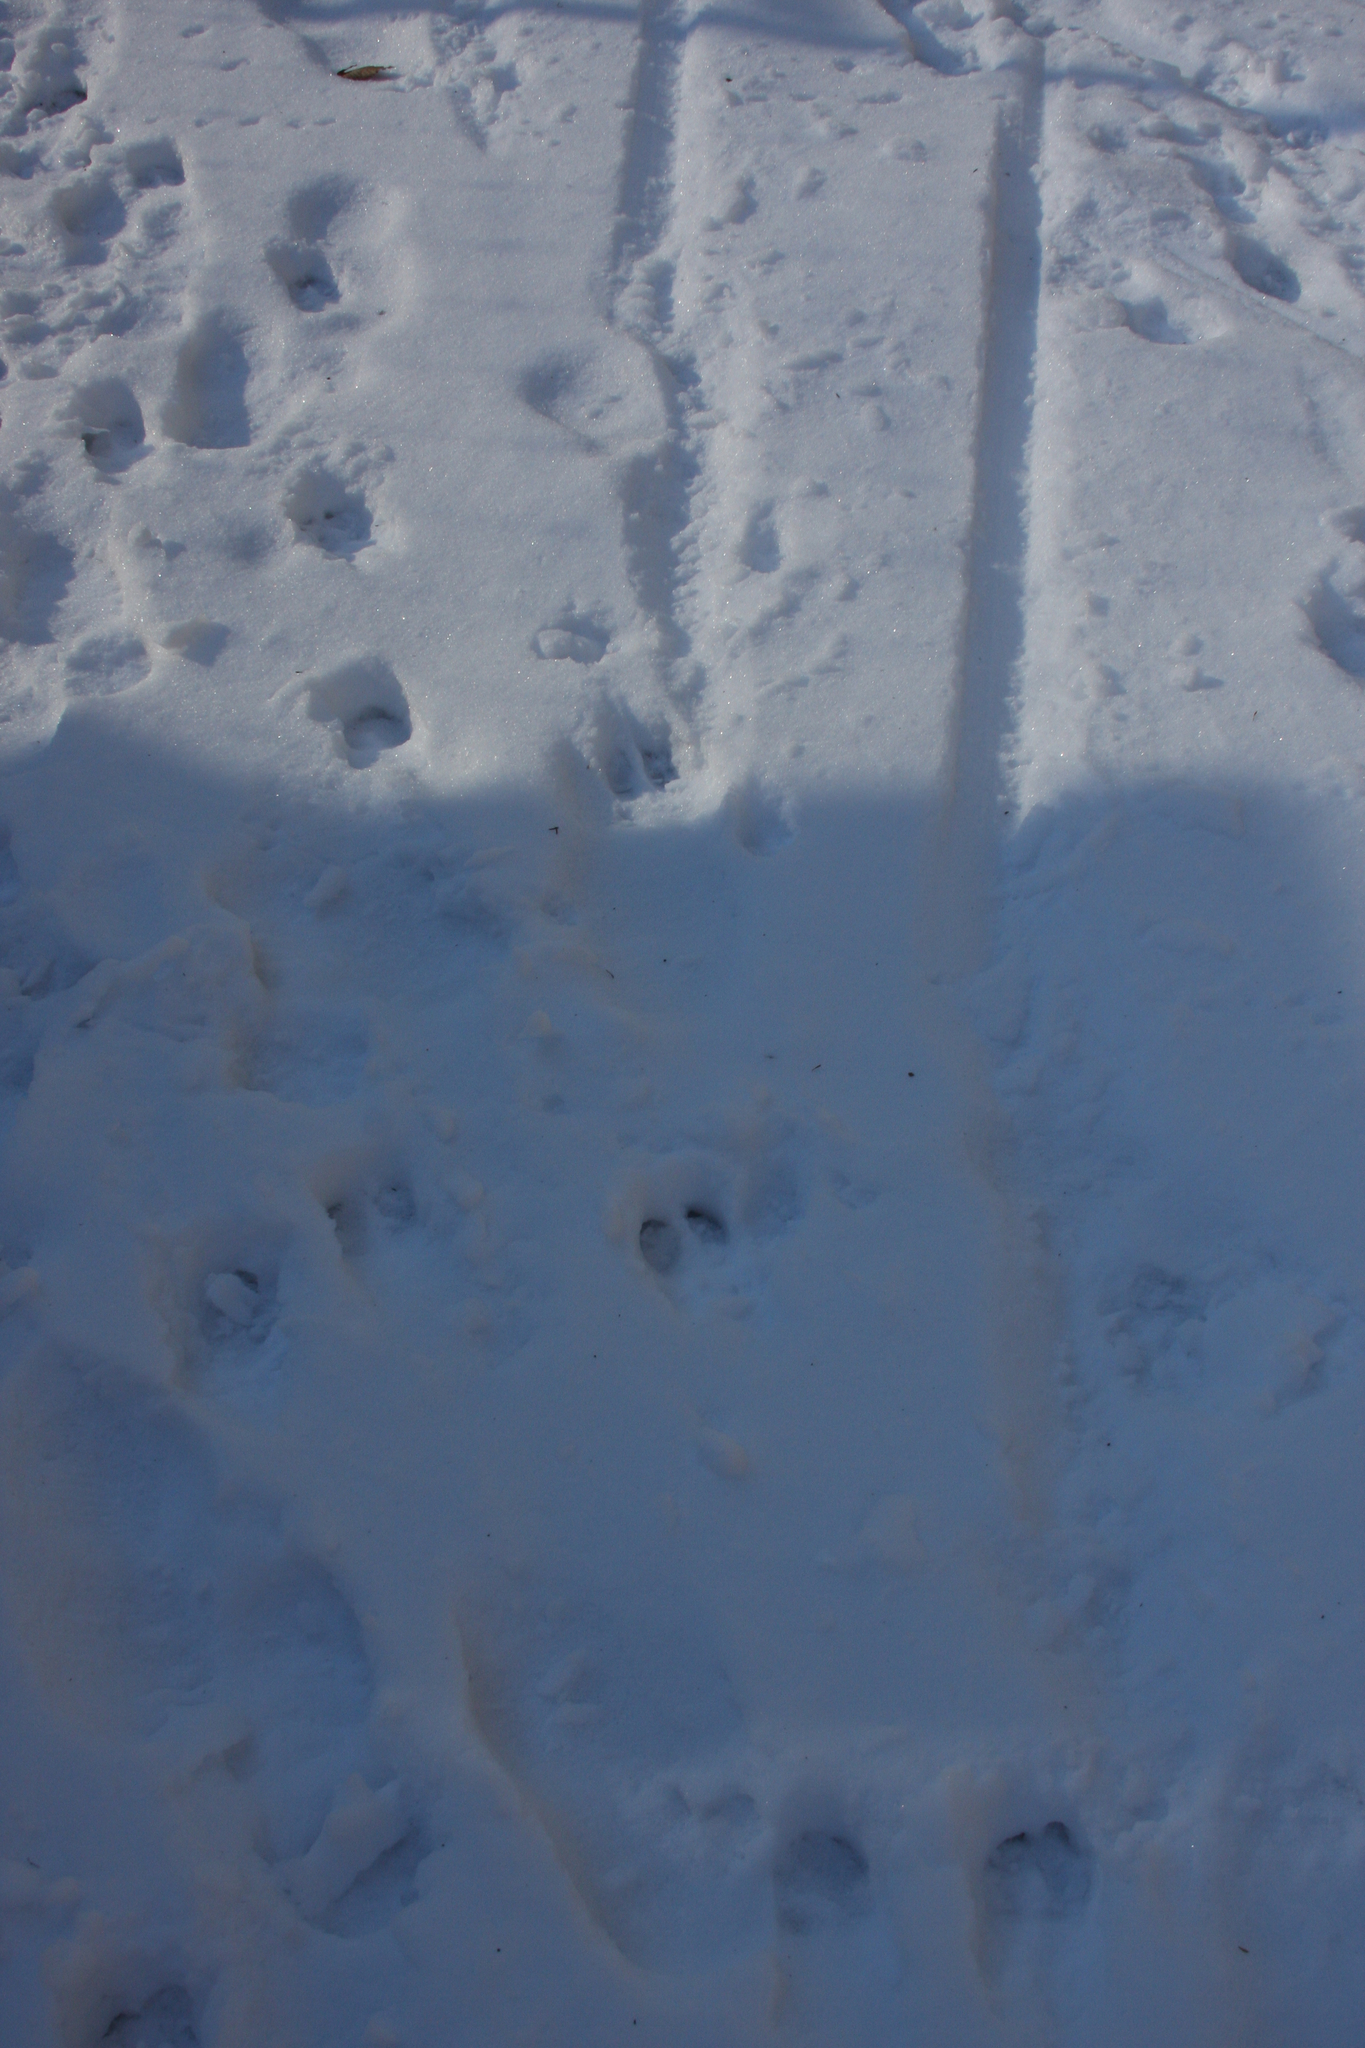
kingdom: Animalia
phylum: Chordata
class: Mammalia
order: Artiodactyla
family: Cervidae
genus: Odocoileus
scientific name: Odocoileus virginianus
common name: White-tailed deer
